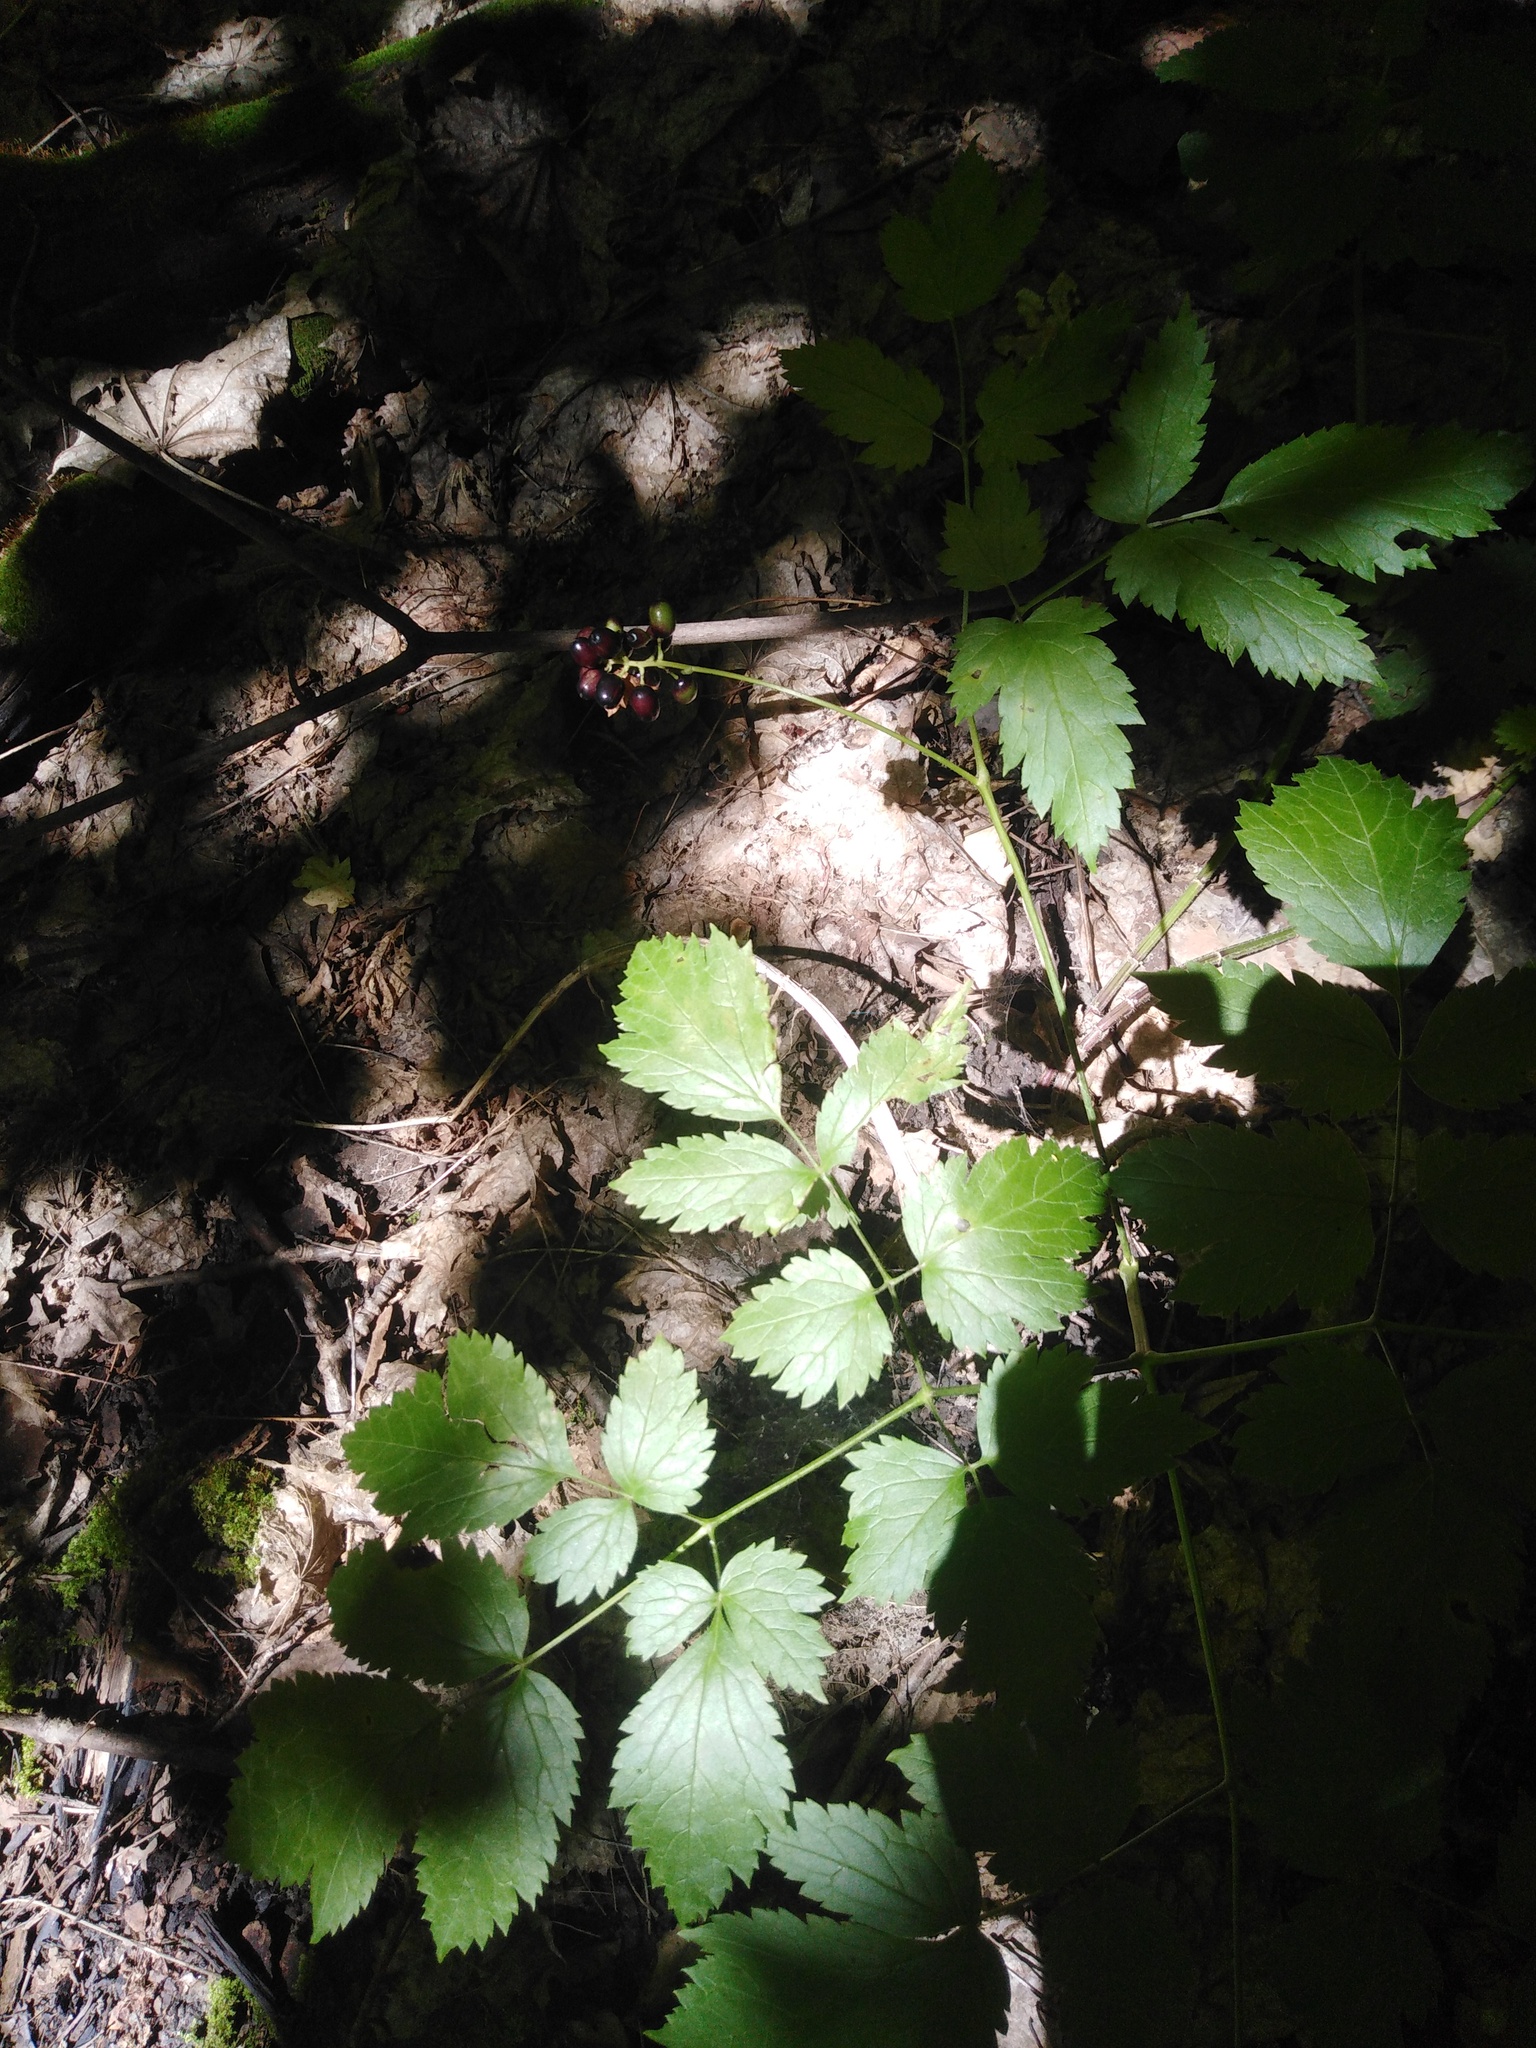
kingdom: Plantae
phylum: Tracheophyta
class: Magnoliopsida
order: Ranunculales
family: Ranunculaceae
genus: Actaea
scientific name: Actaea spicata
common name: Baneberry
